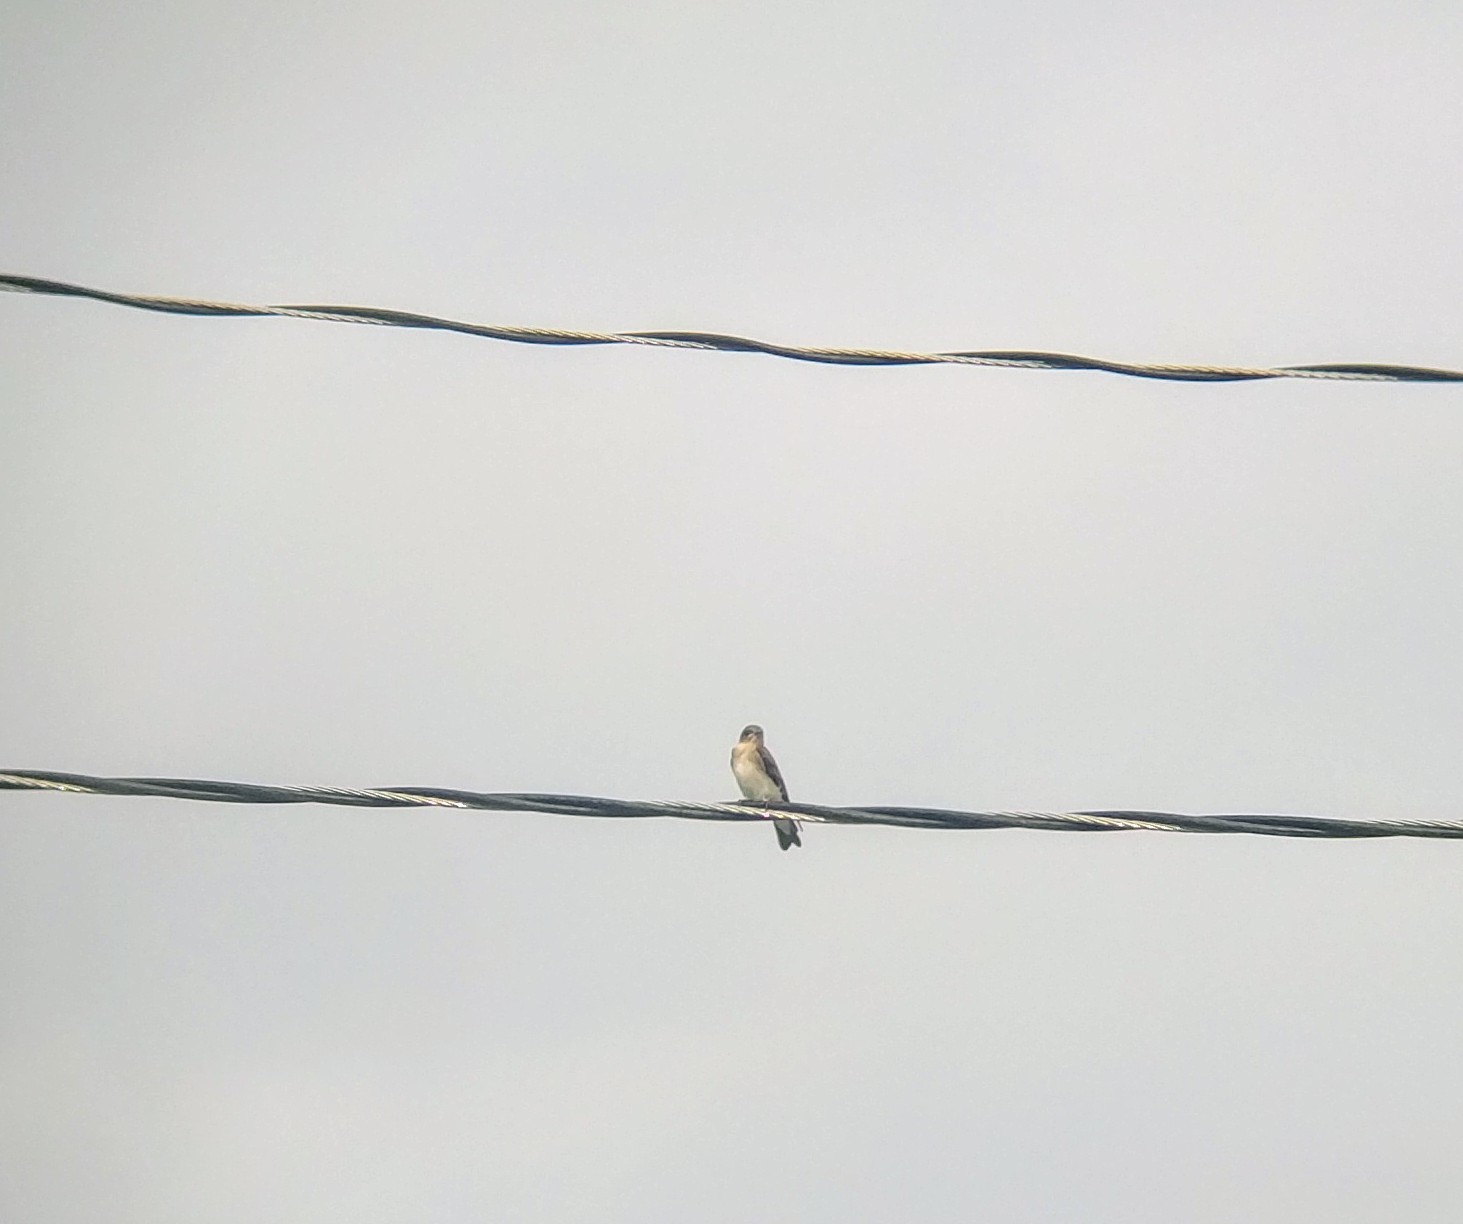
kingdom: Animalia
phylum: Chordata
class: Aves
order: Passeriformes
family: Hirundinidae
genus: Stelgidopteryx
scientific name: Stelgidopteryx serripennis
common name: Northern rough-winged swallow
